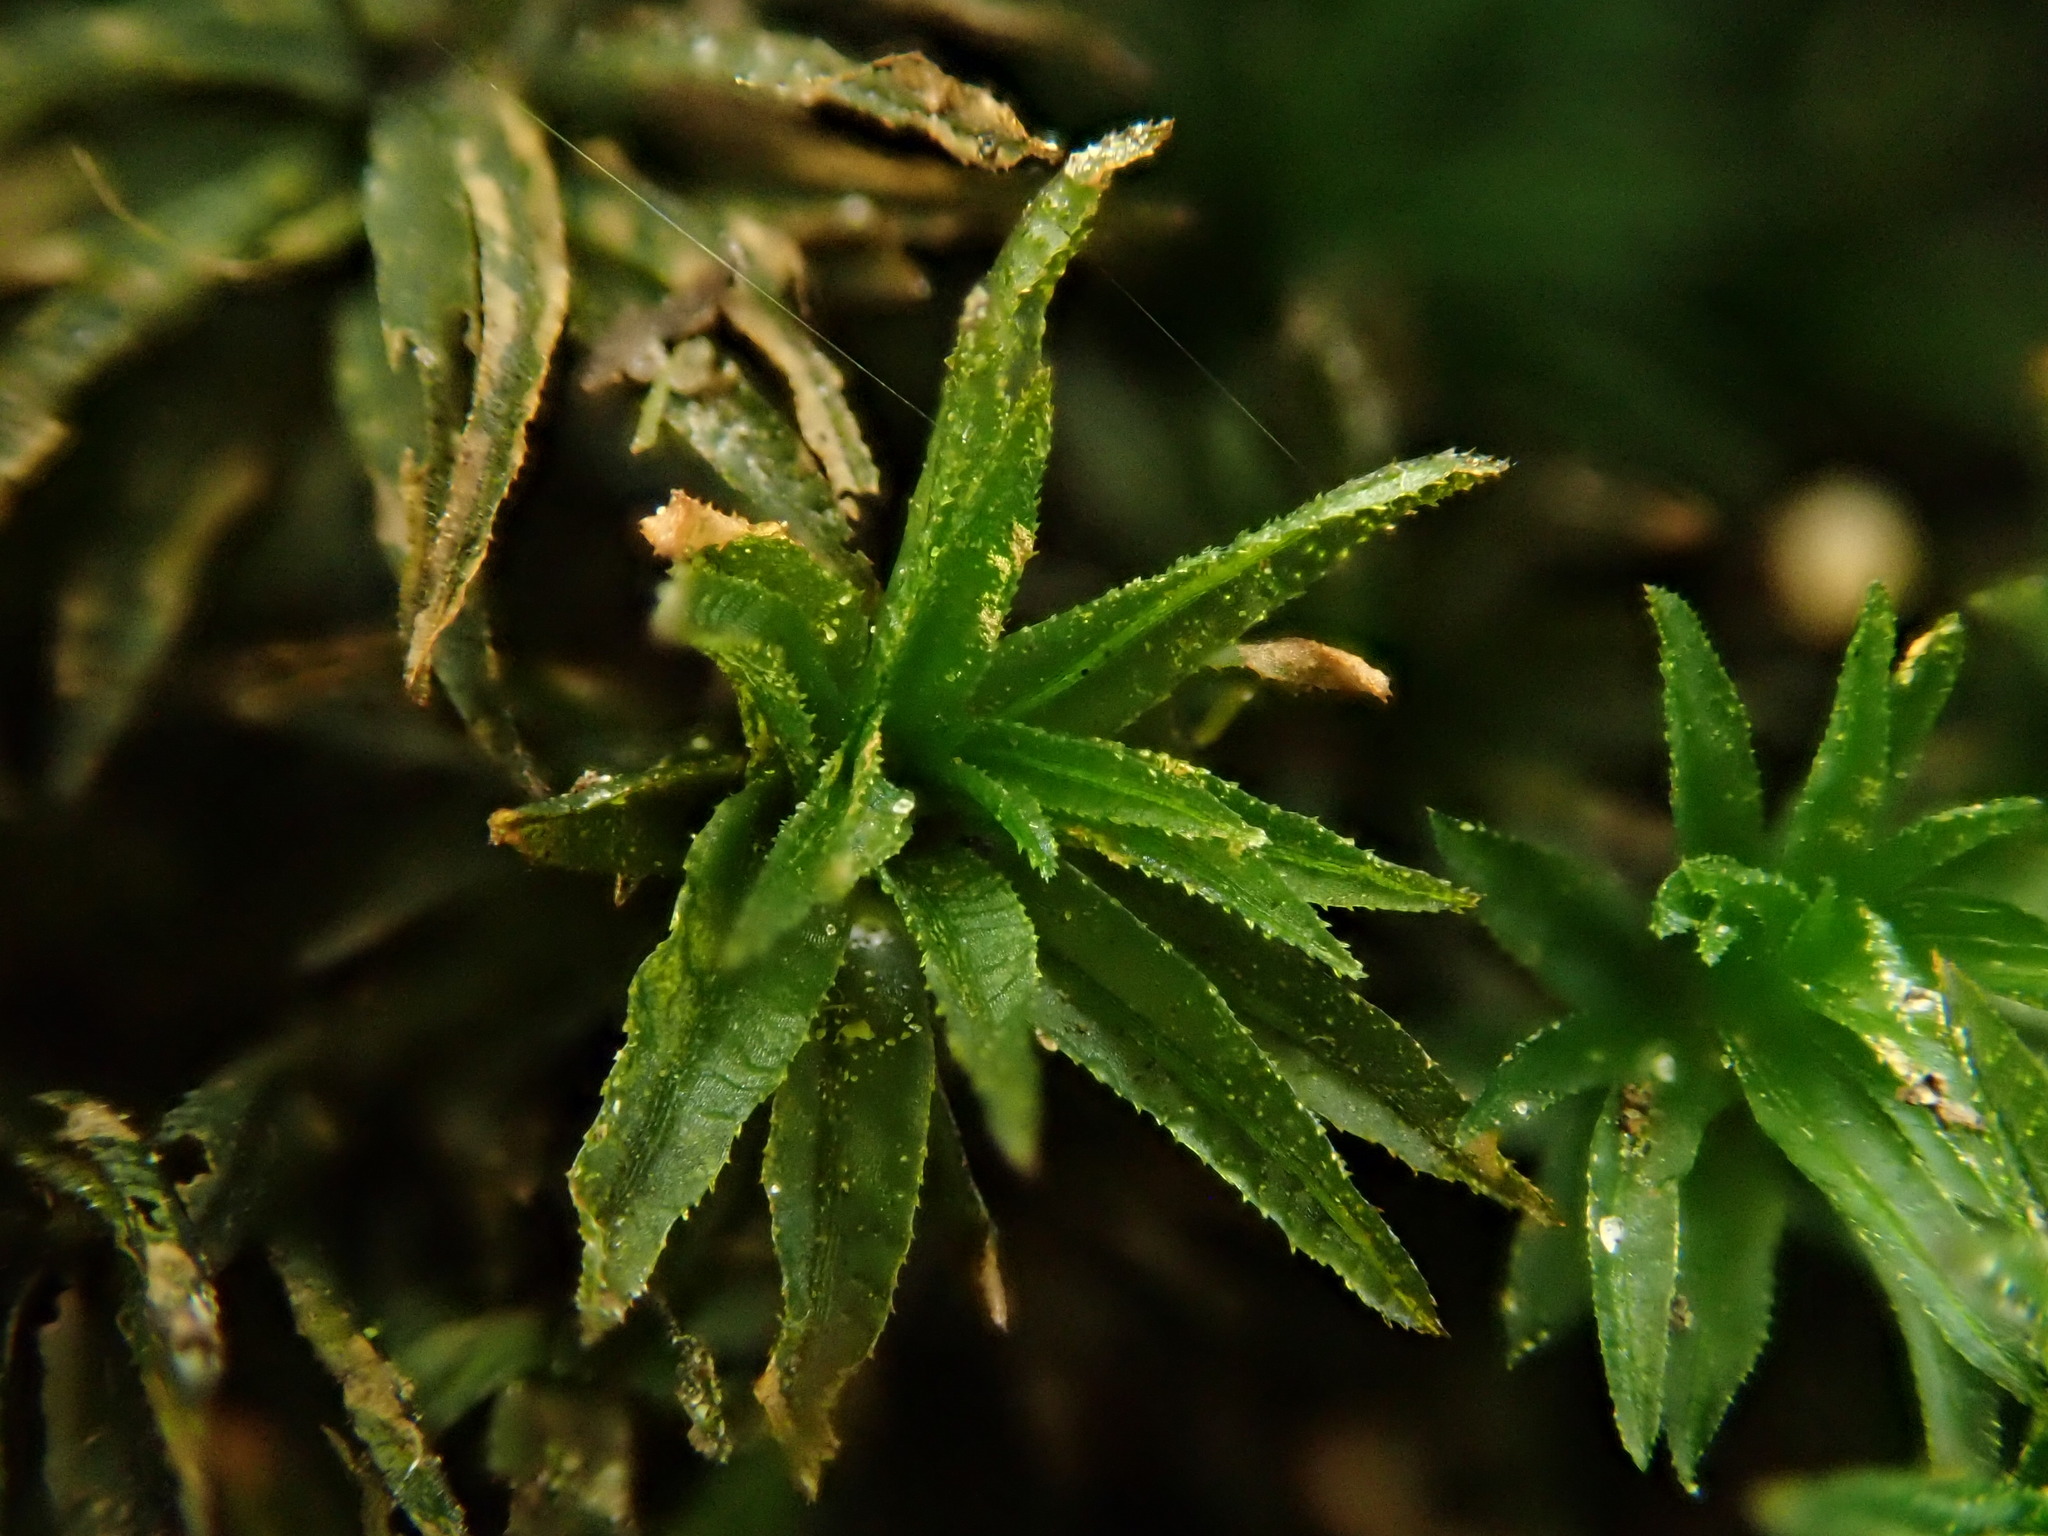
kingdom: Plantae
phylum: Bryophyta
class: Polytrichopsida
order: Polytrichales
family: Polytrichaceae
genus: Atrichum
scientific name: Atrichum undulatum
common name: Common smoothcap
